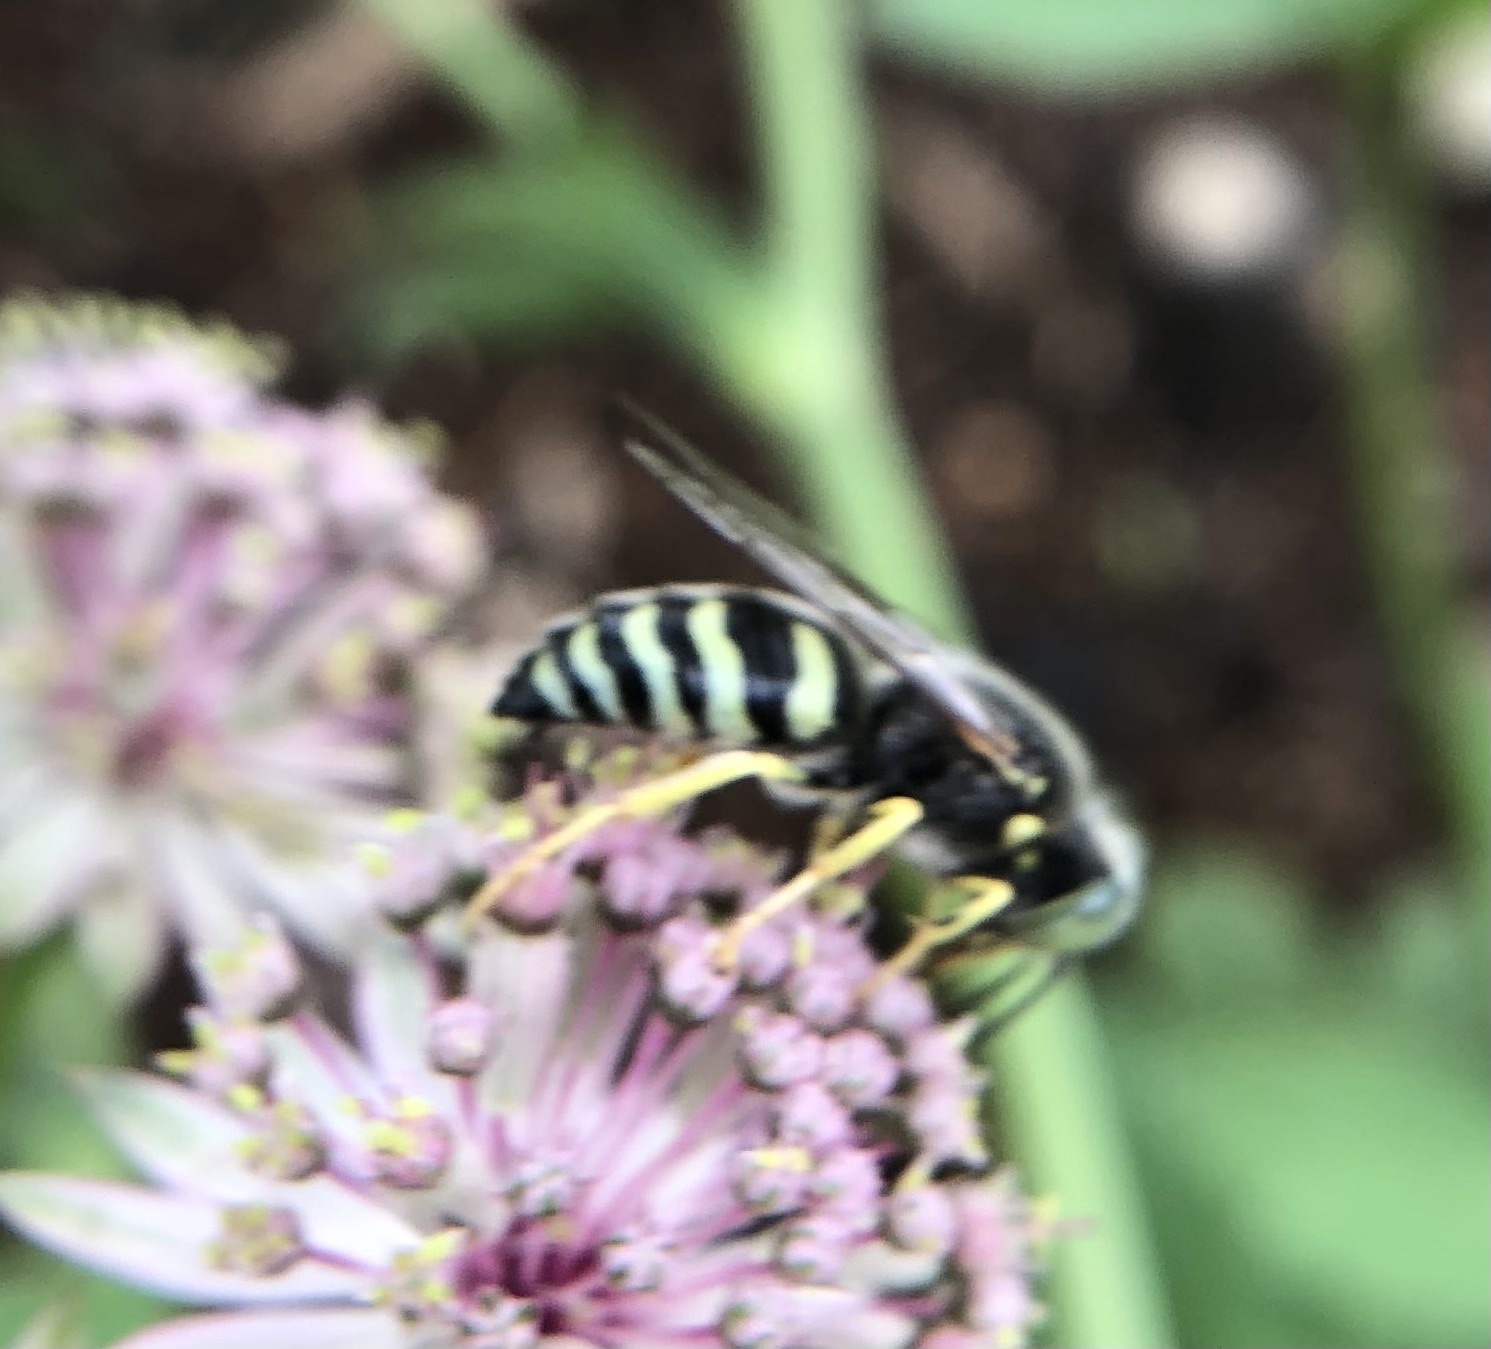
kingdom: Animalia
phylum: Arthropoda
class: Insecta
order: Hymenoptera
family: Crabronidae
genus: Bembix
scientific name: Bembix americana
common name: American sand wasp
